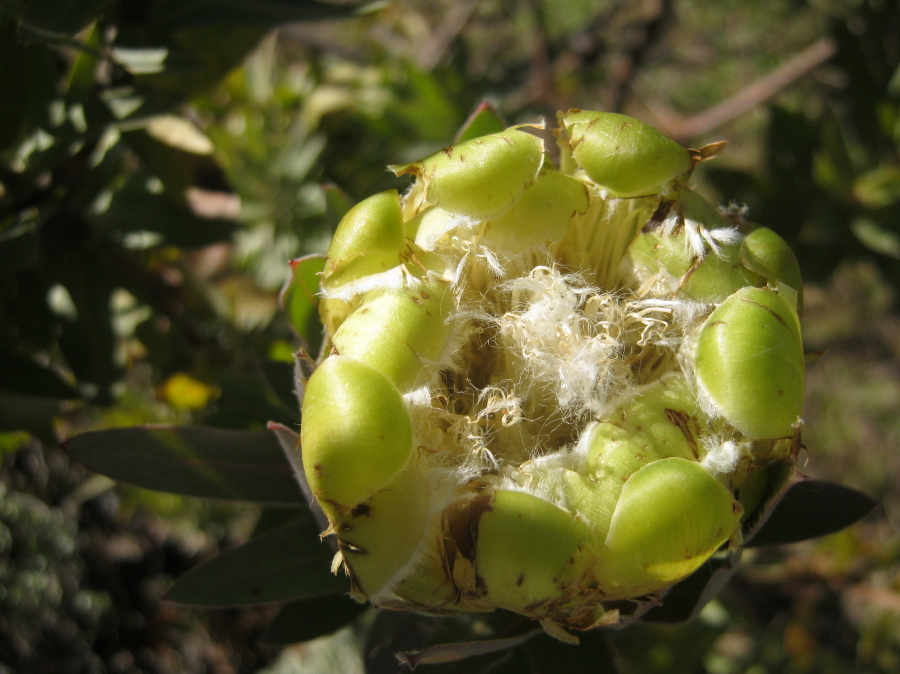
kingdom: Plantae
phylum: Tracheophyta
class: Magnoliopsida
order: Proteales
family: Proteaceae
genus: Protea
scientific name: Protea coronata
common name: Green sugarbush
